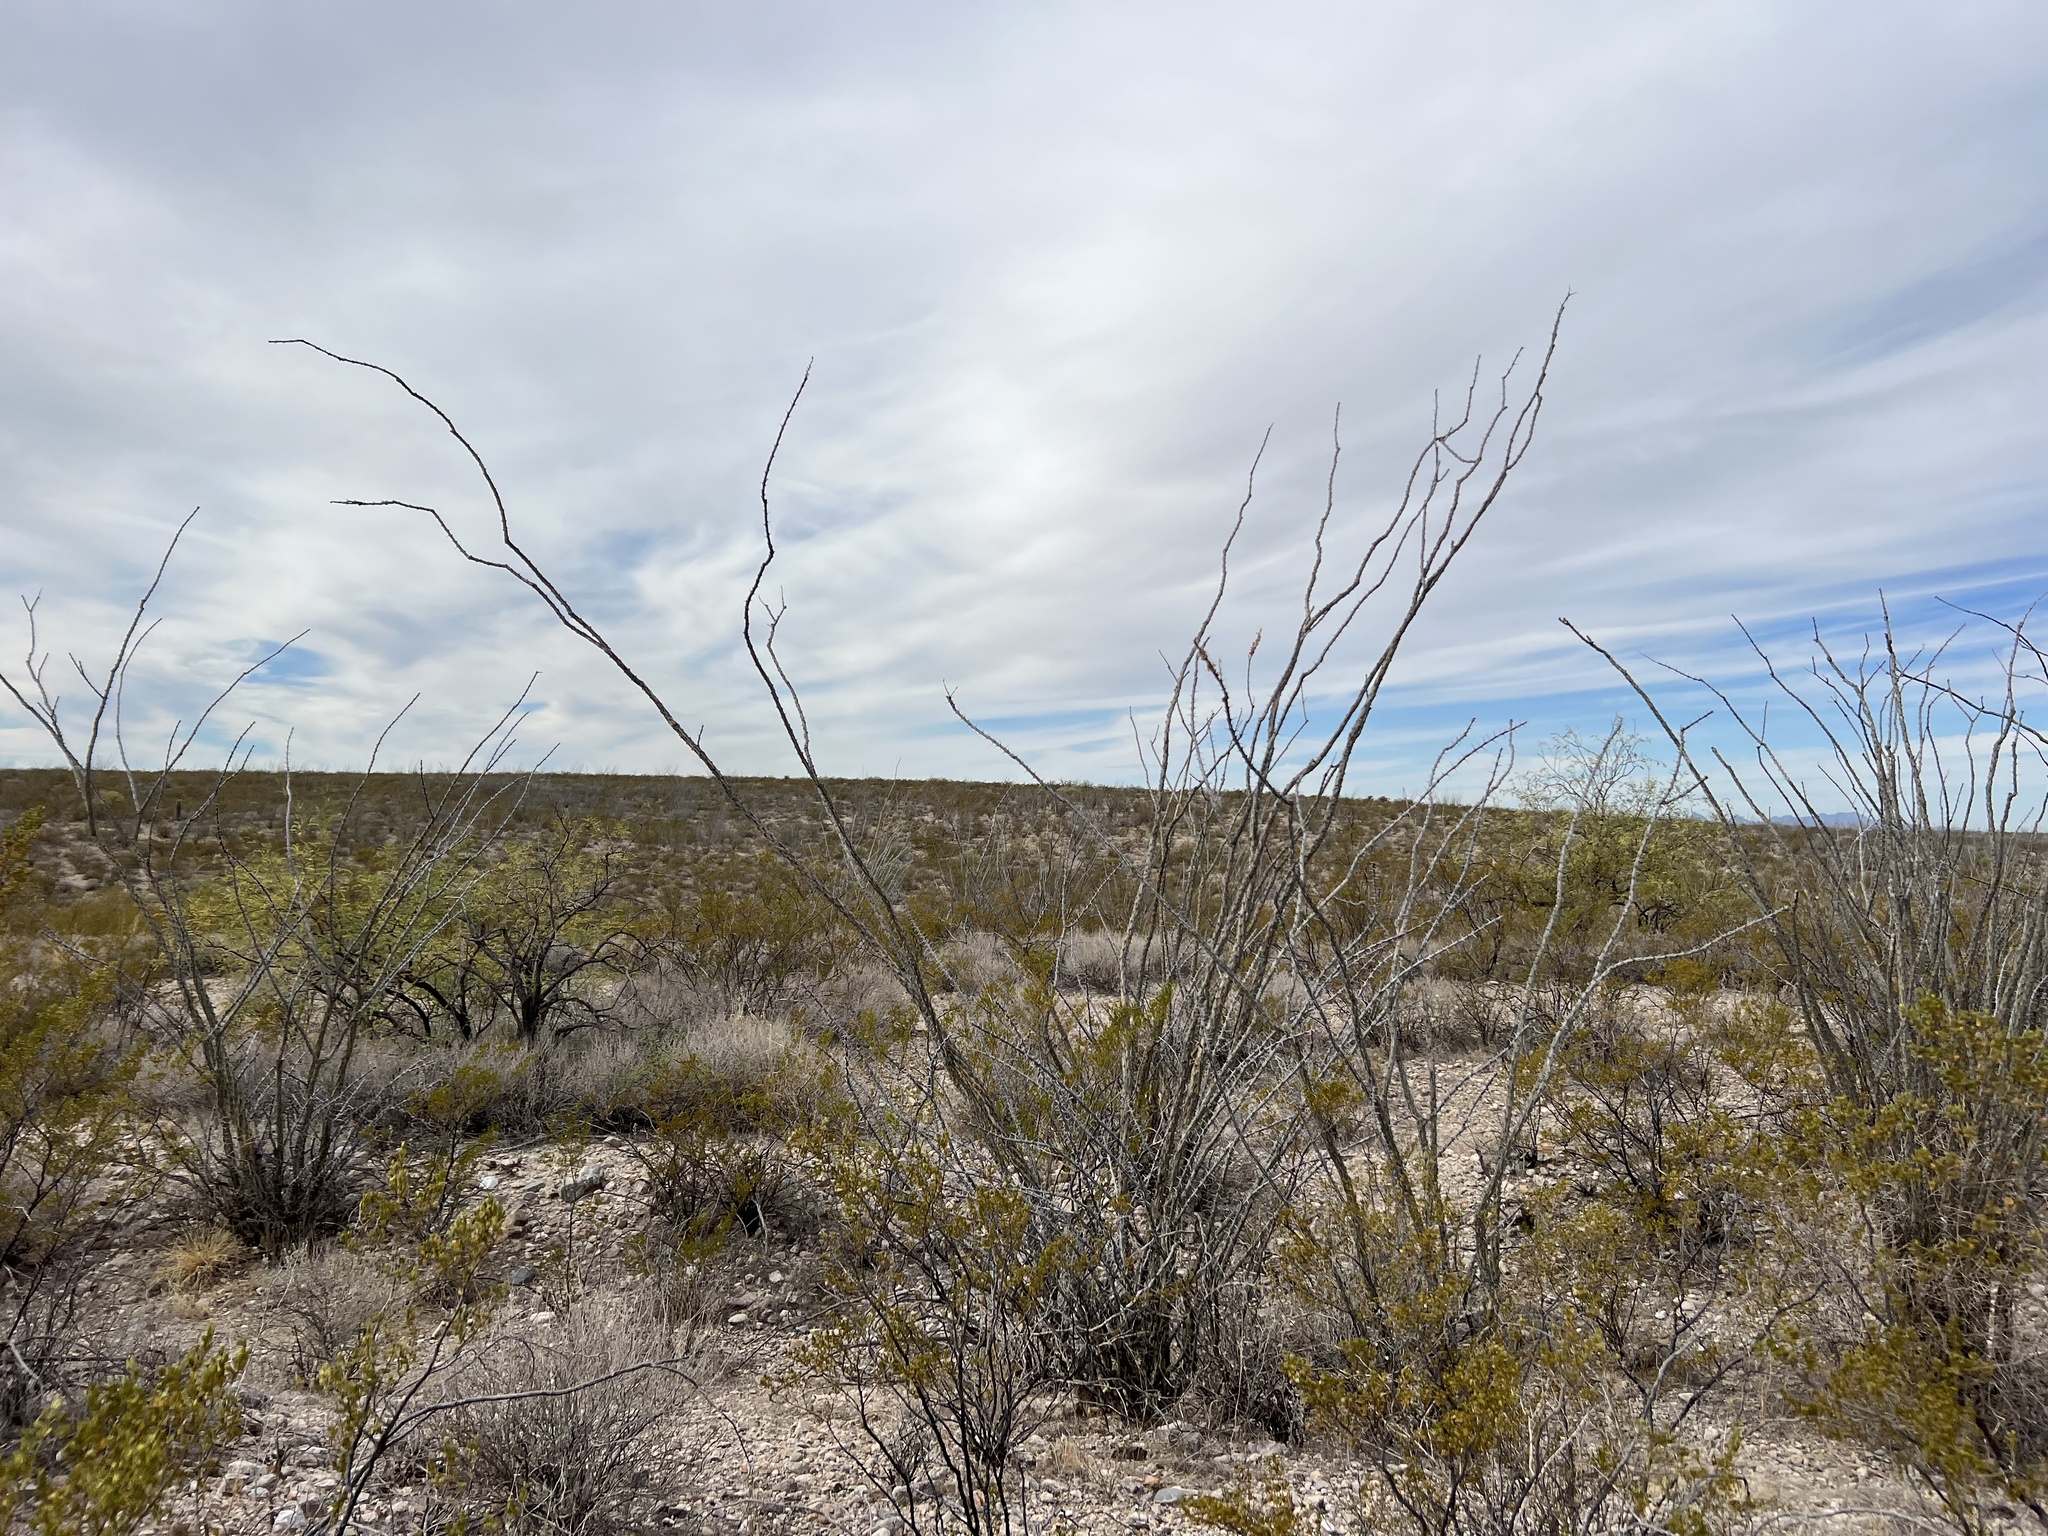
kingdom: Plantae
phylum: Tracheophyta
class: Magnoliopsida
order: Ericales
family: Fouquieriaceae
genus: Fouquieria
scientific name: Fouquieria splendens
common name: Vine-cactus
